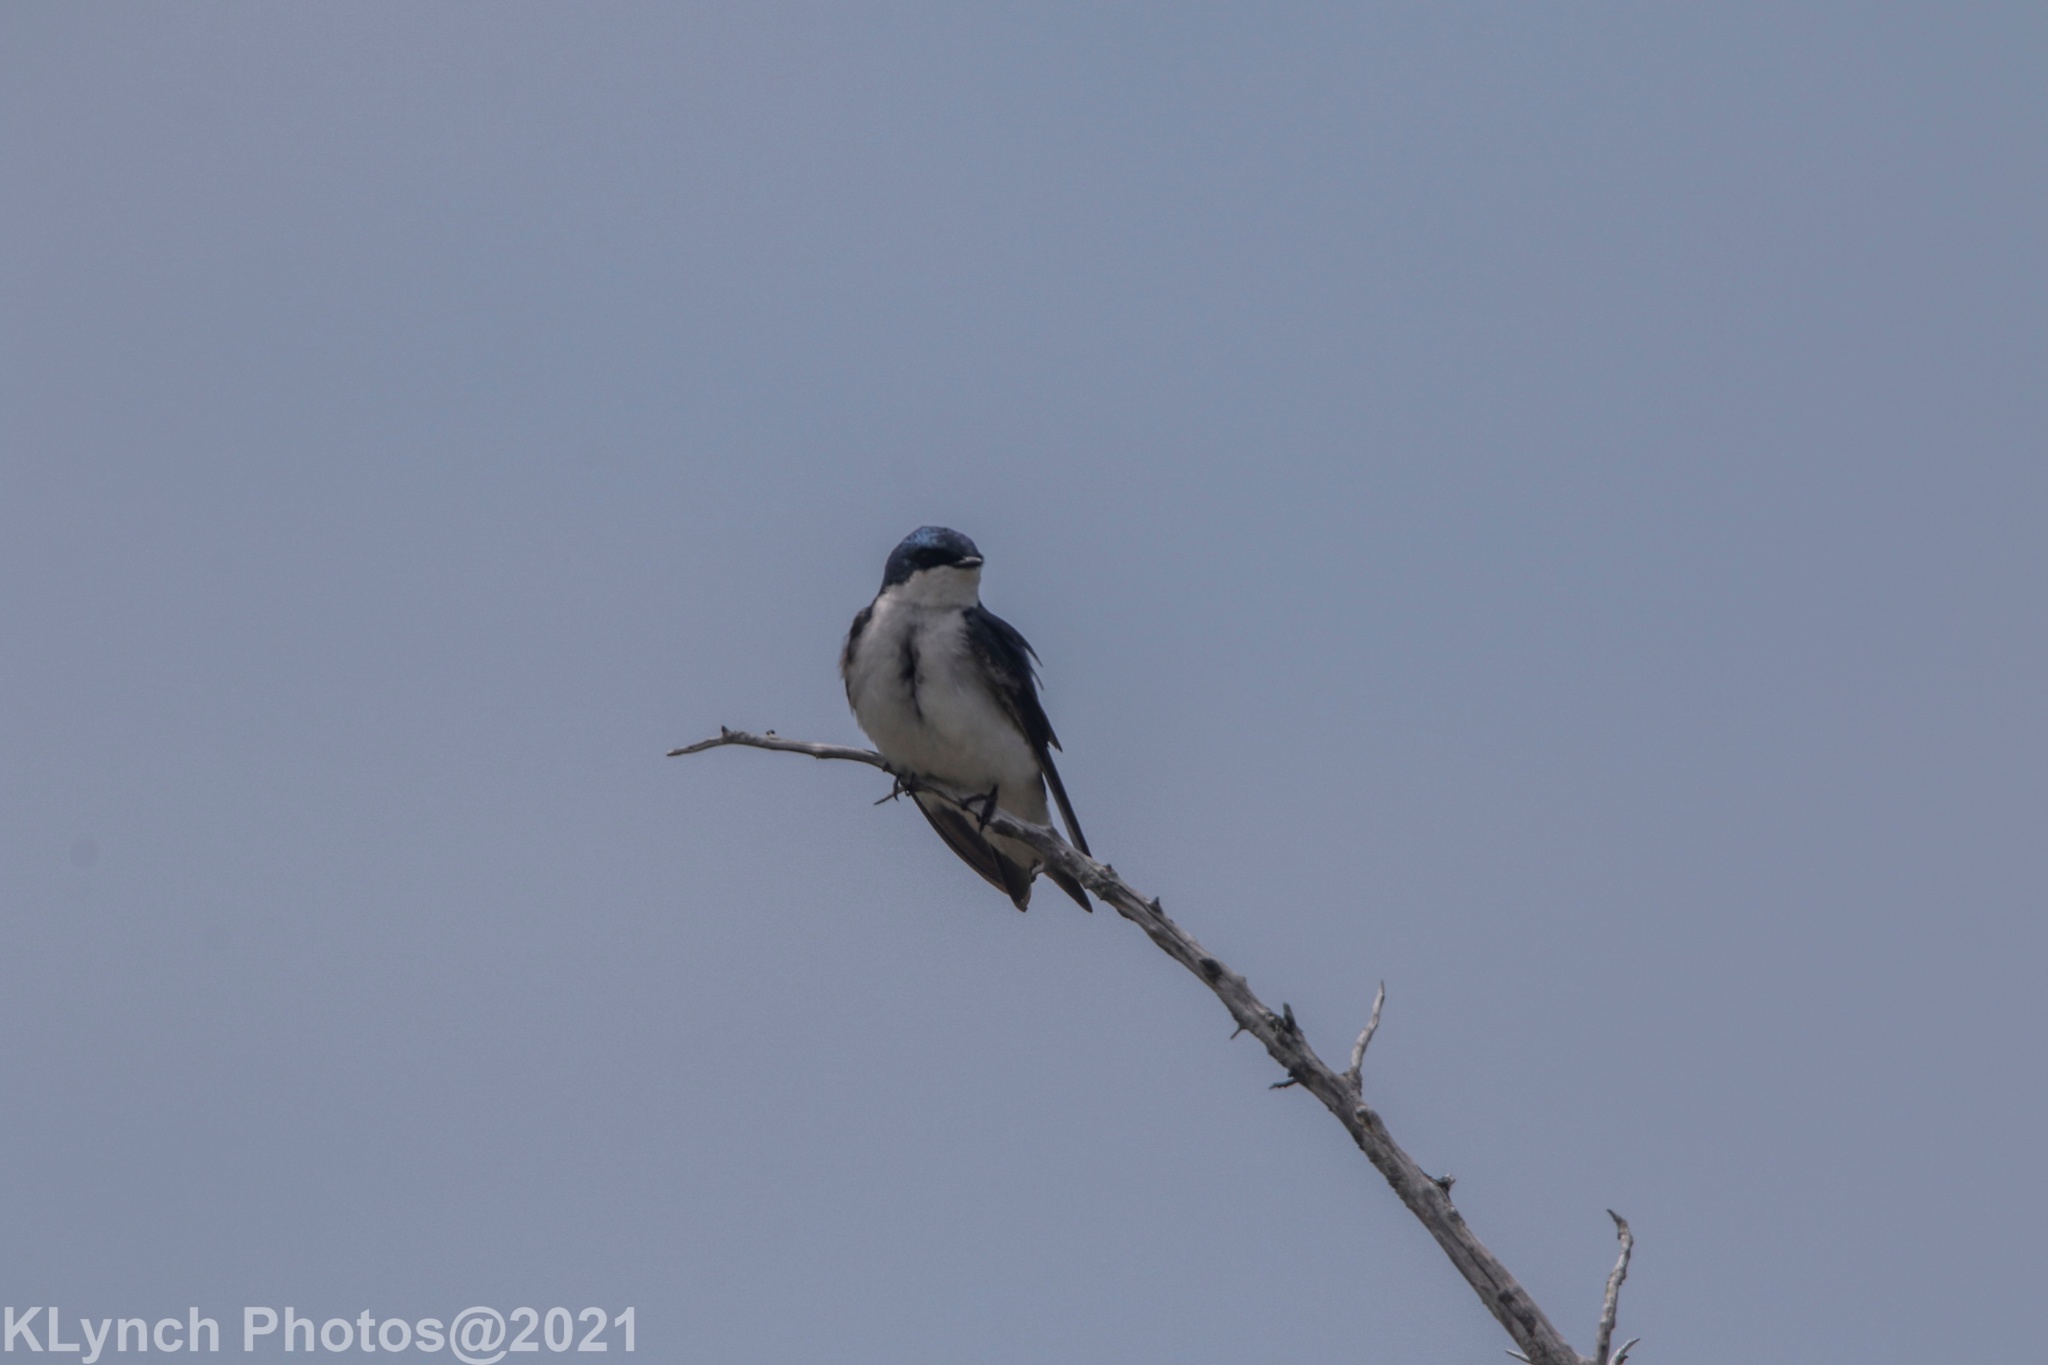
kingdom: Animalia
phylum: Chordata
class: Aves
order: Passeriformes
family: Hirundinidae
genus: Tachycineta
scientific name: Tachycineta bicolor
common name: Tree swallow
